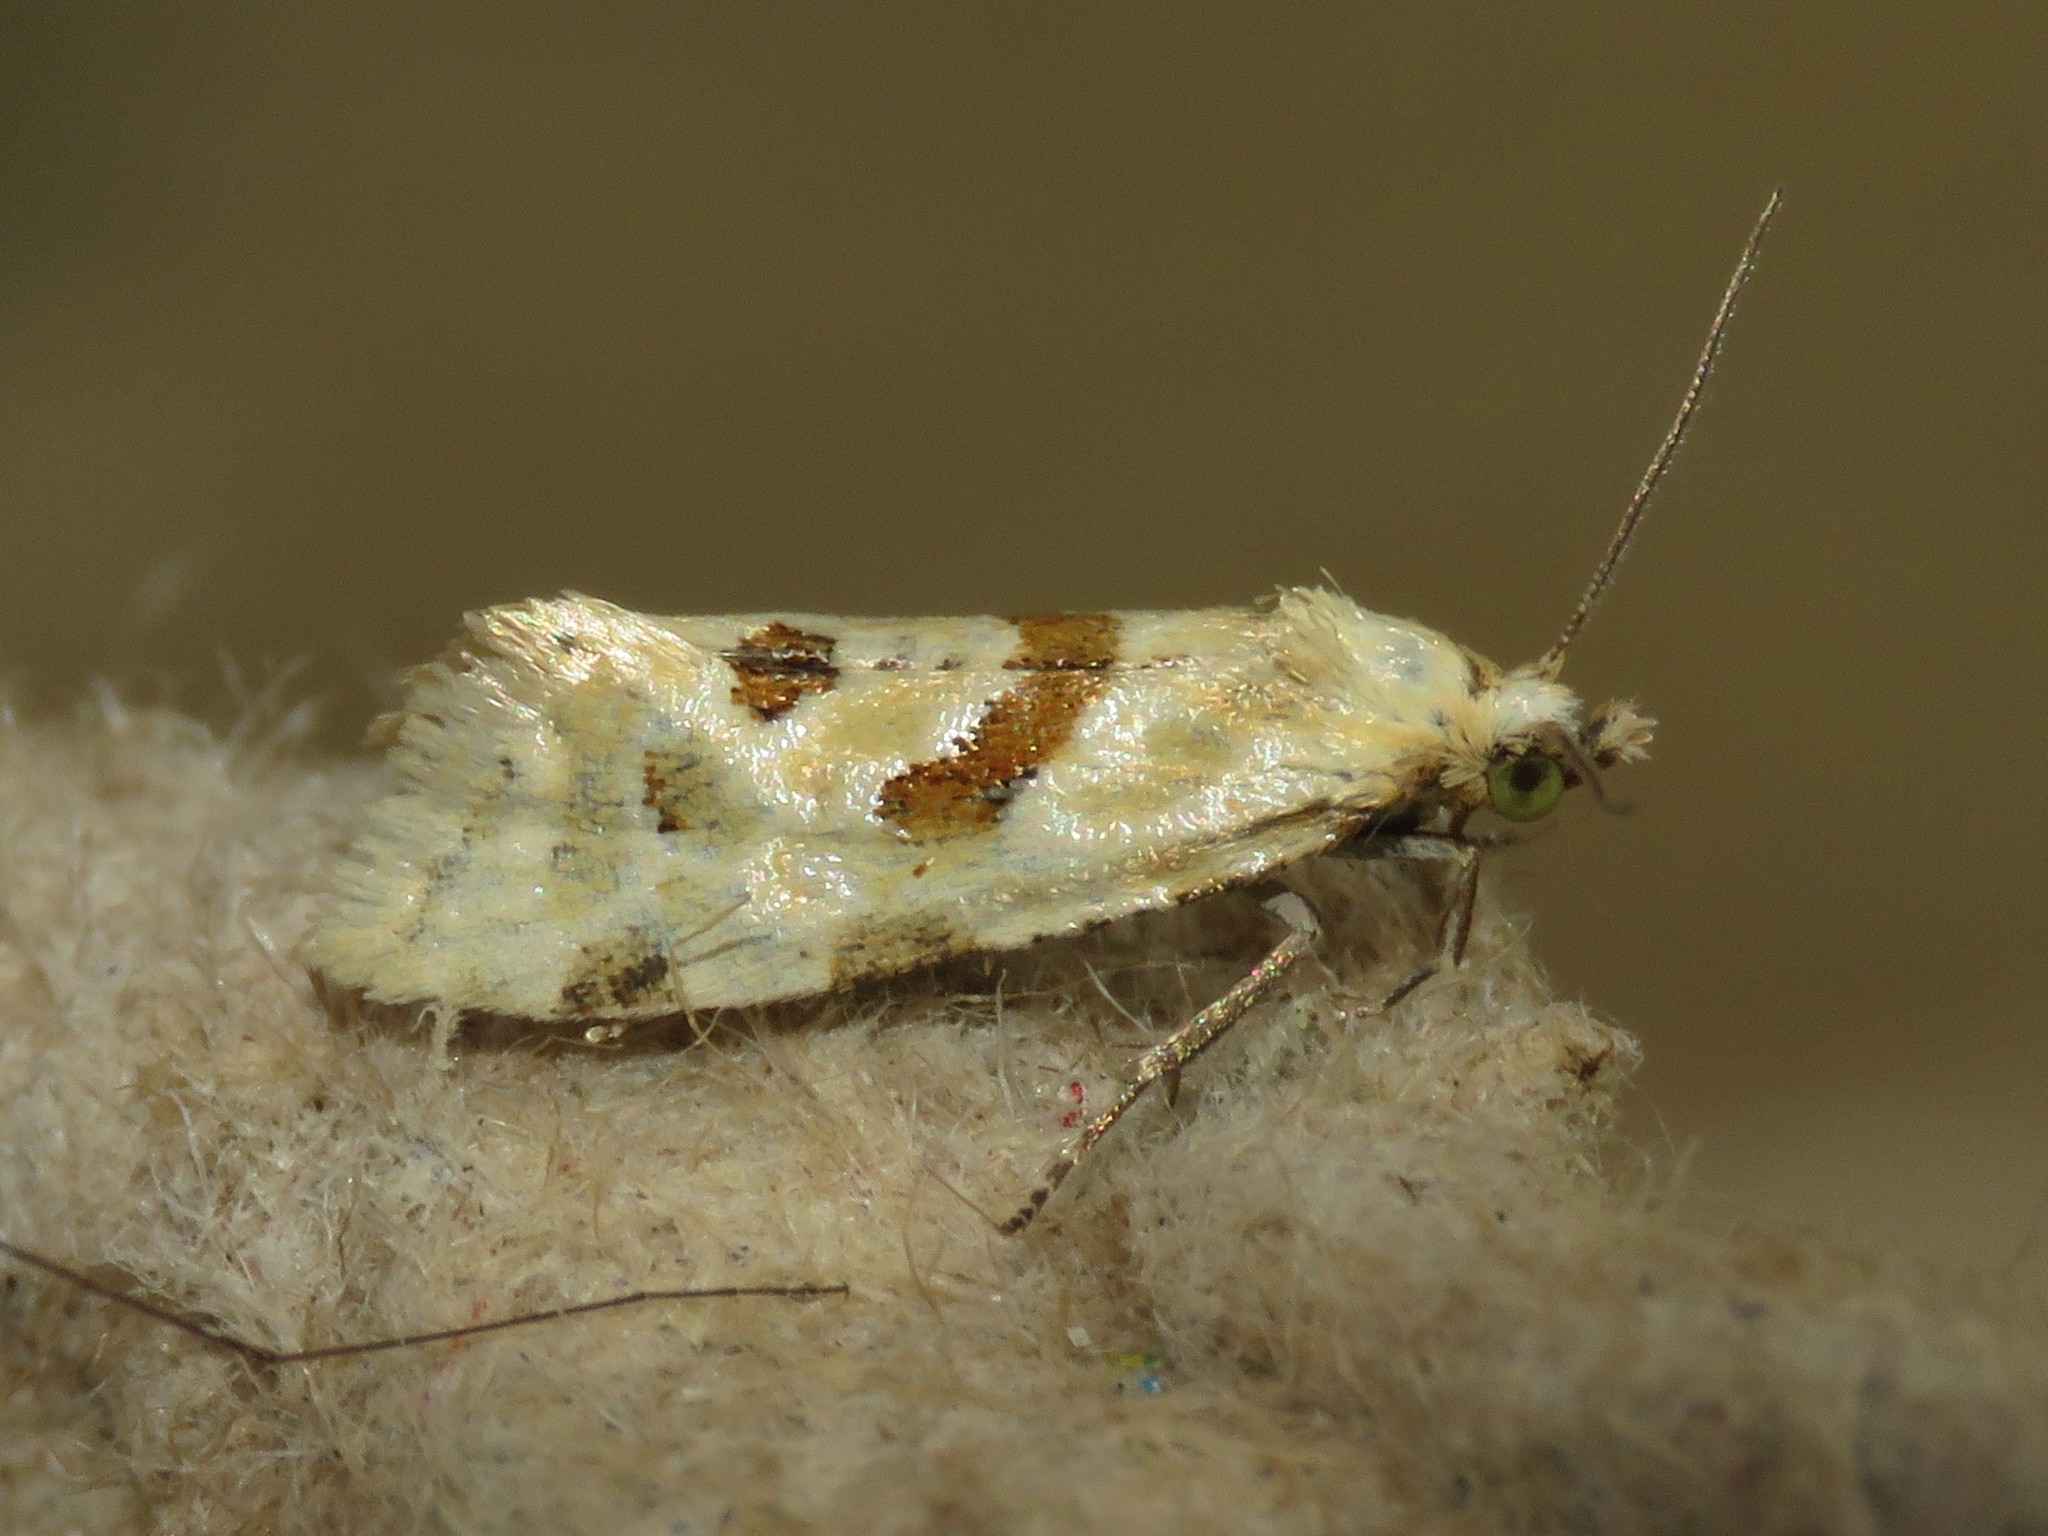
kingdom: Animalia
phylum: Arthropoda
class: Insecta
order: Lepidoptera
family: Tortricidae
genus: Aethes
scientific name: Aethes smeathmanniana
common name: Yarrow conch
